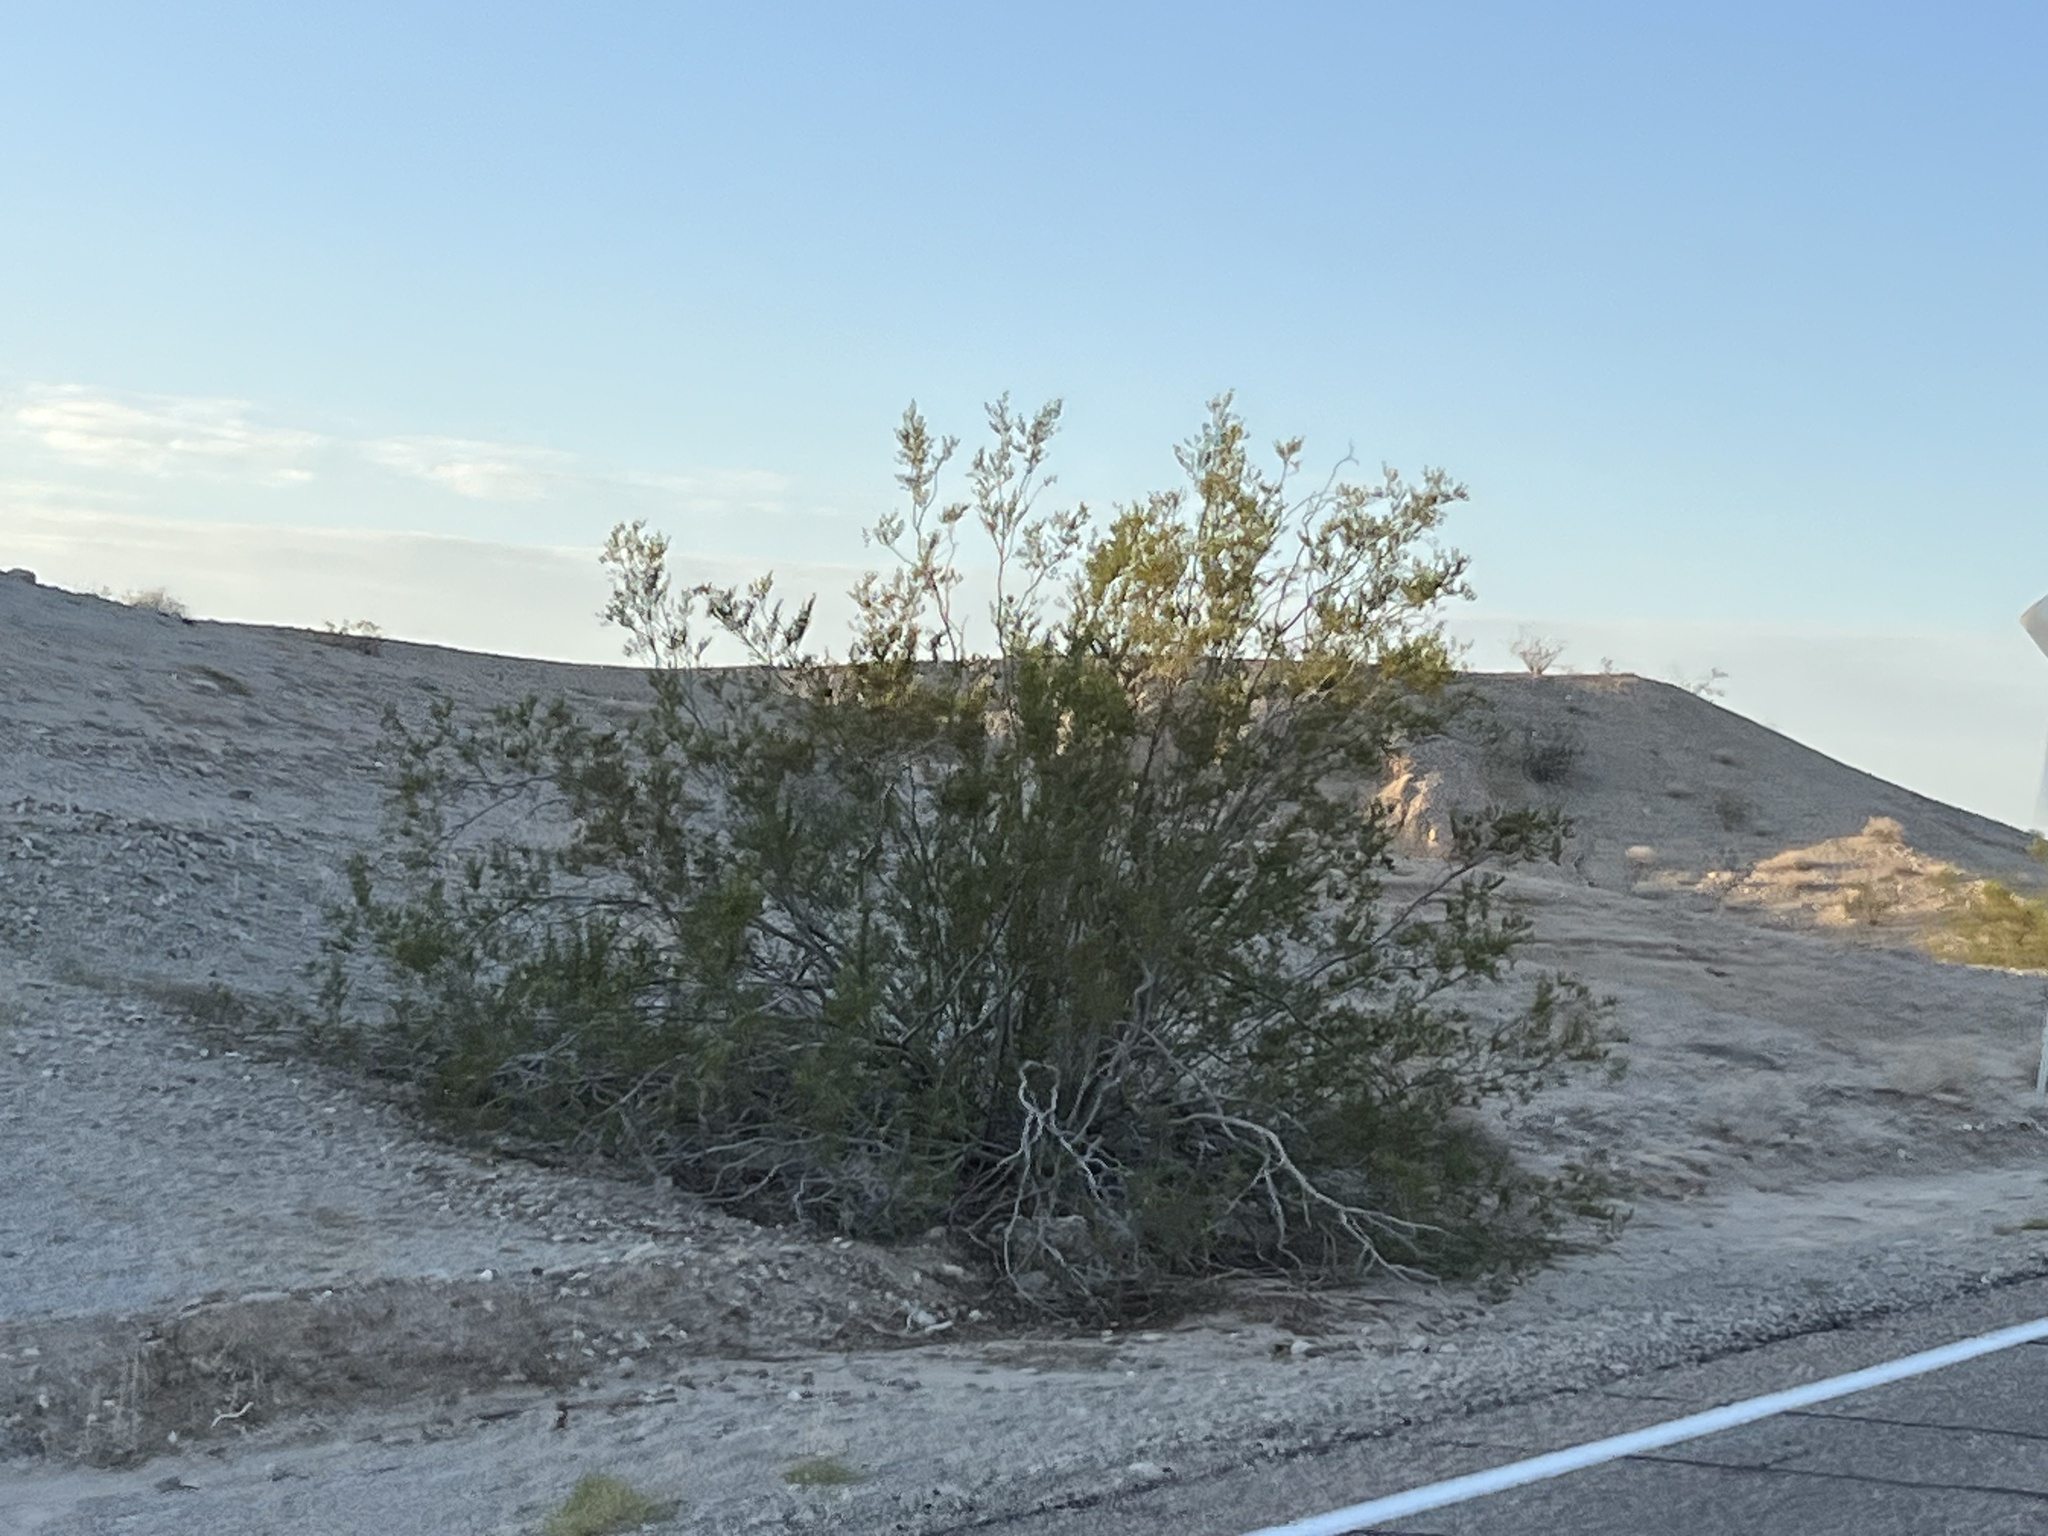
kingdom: Plantae
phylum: Tracheophyta
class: Magnoliopsida
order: Zygophyllales
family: Zygophyllaceae
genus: Larrea
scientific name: Larrea tridentata
